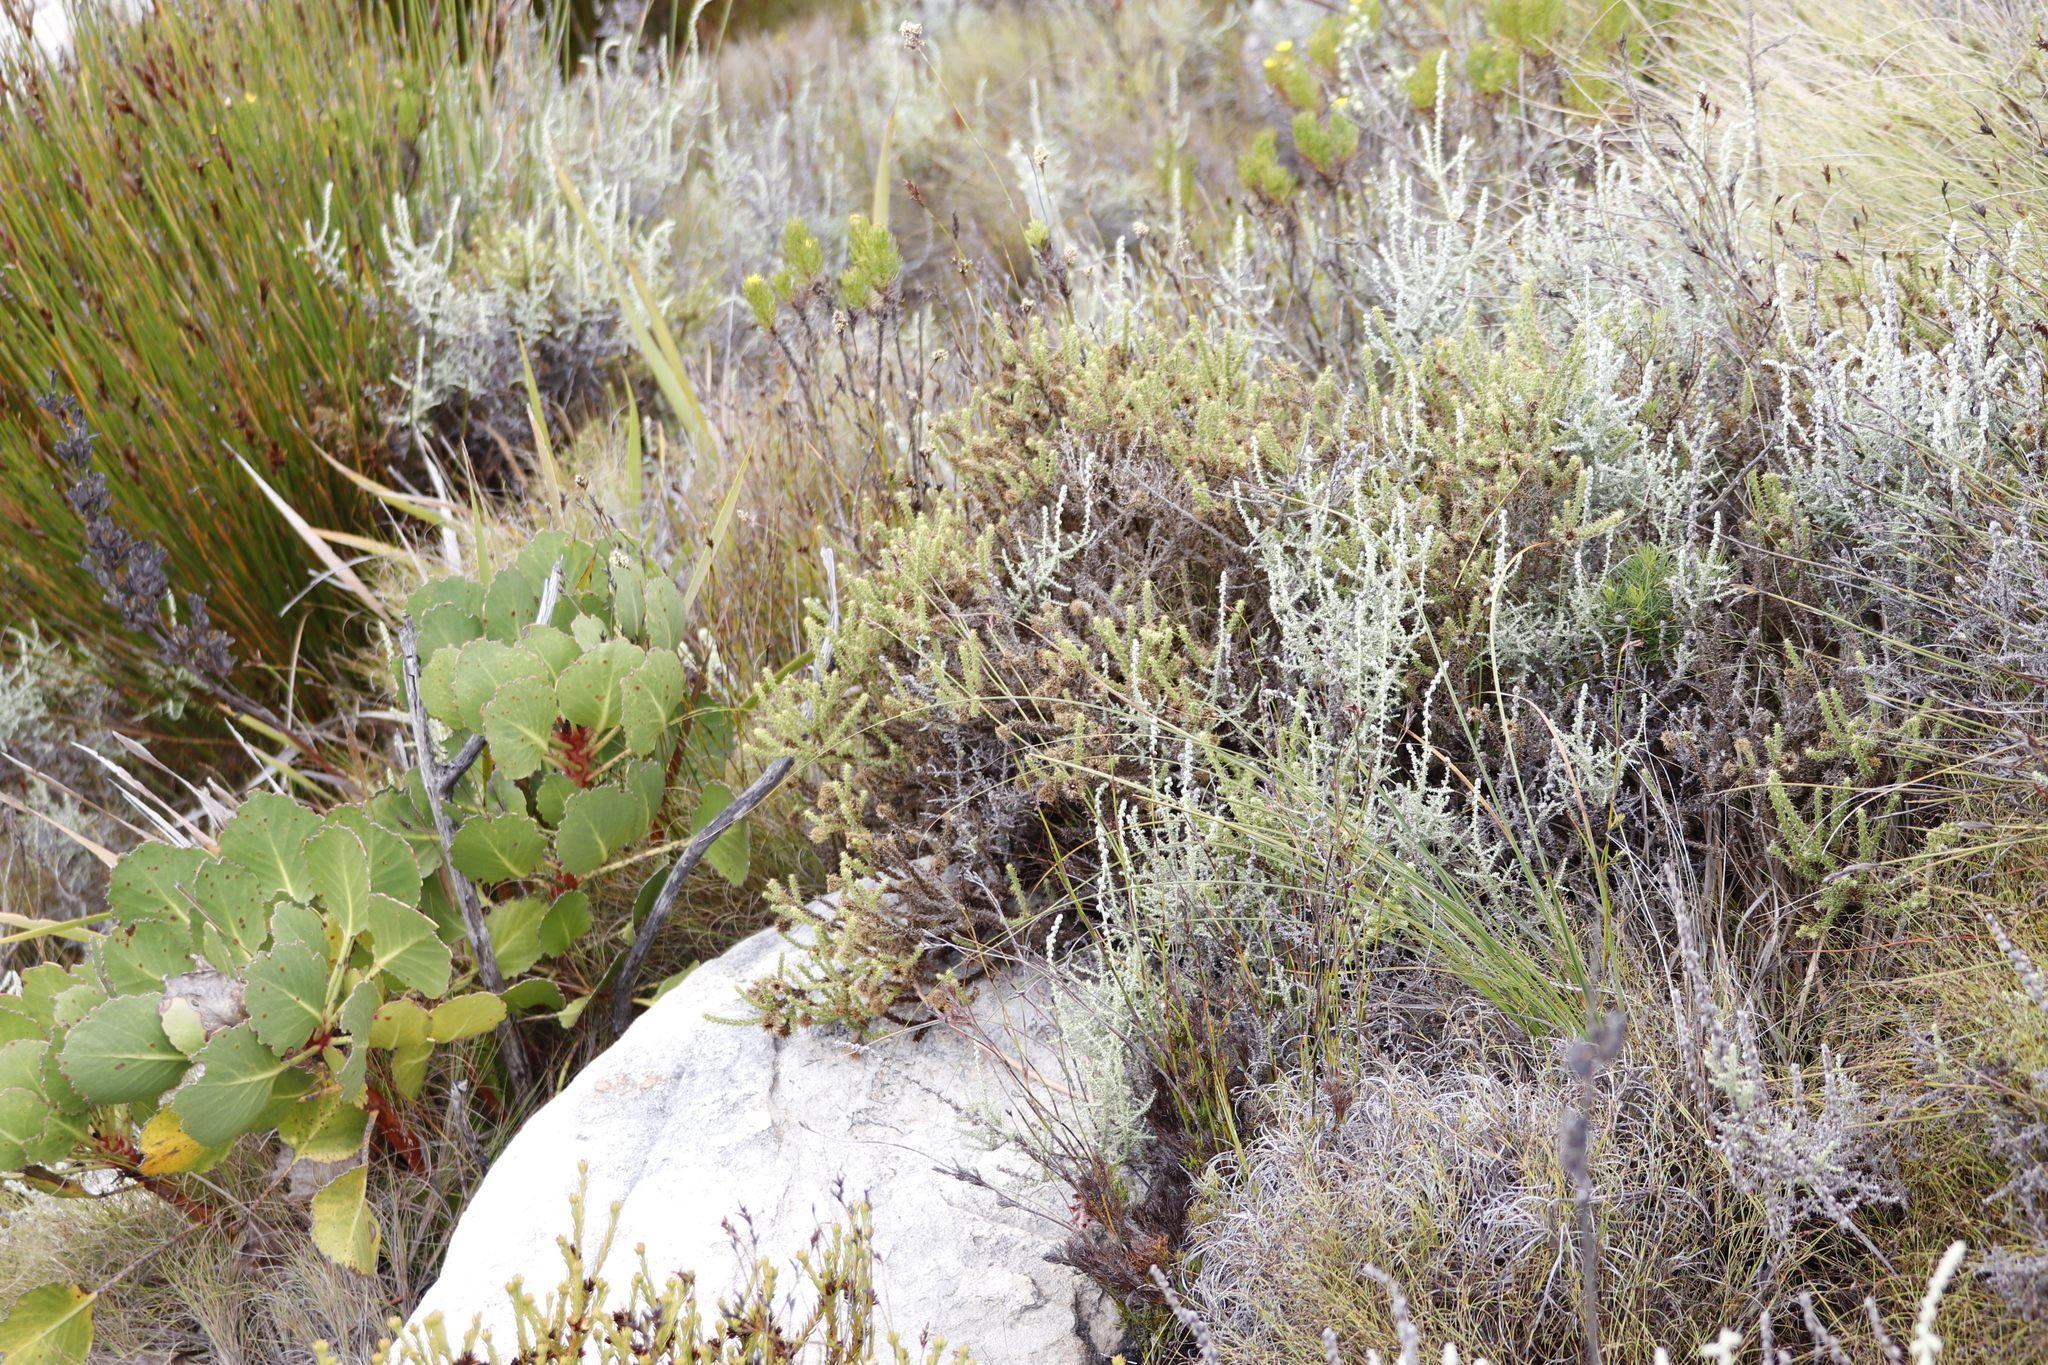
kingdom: Plantae
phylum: Tracheophyta
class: Magnoliopsida
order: Asterales
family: Asteraceae
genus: Cullumia
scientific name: Cullumia reticulata
